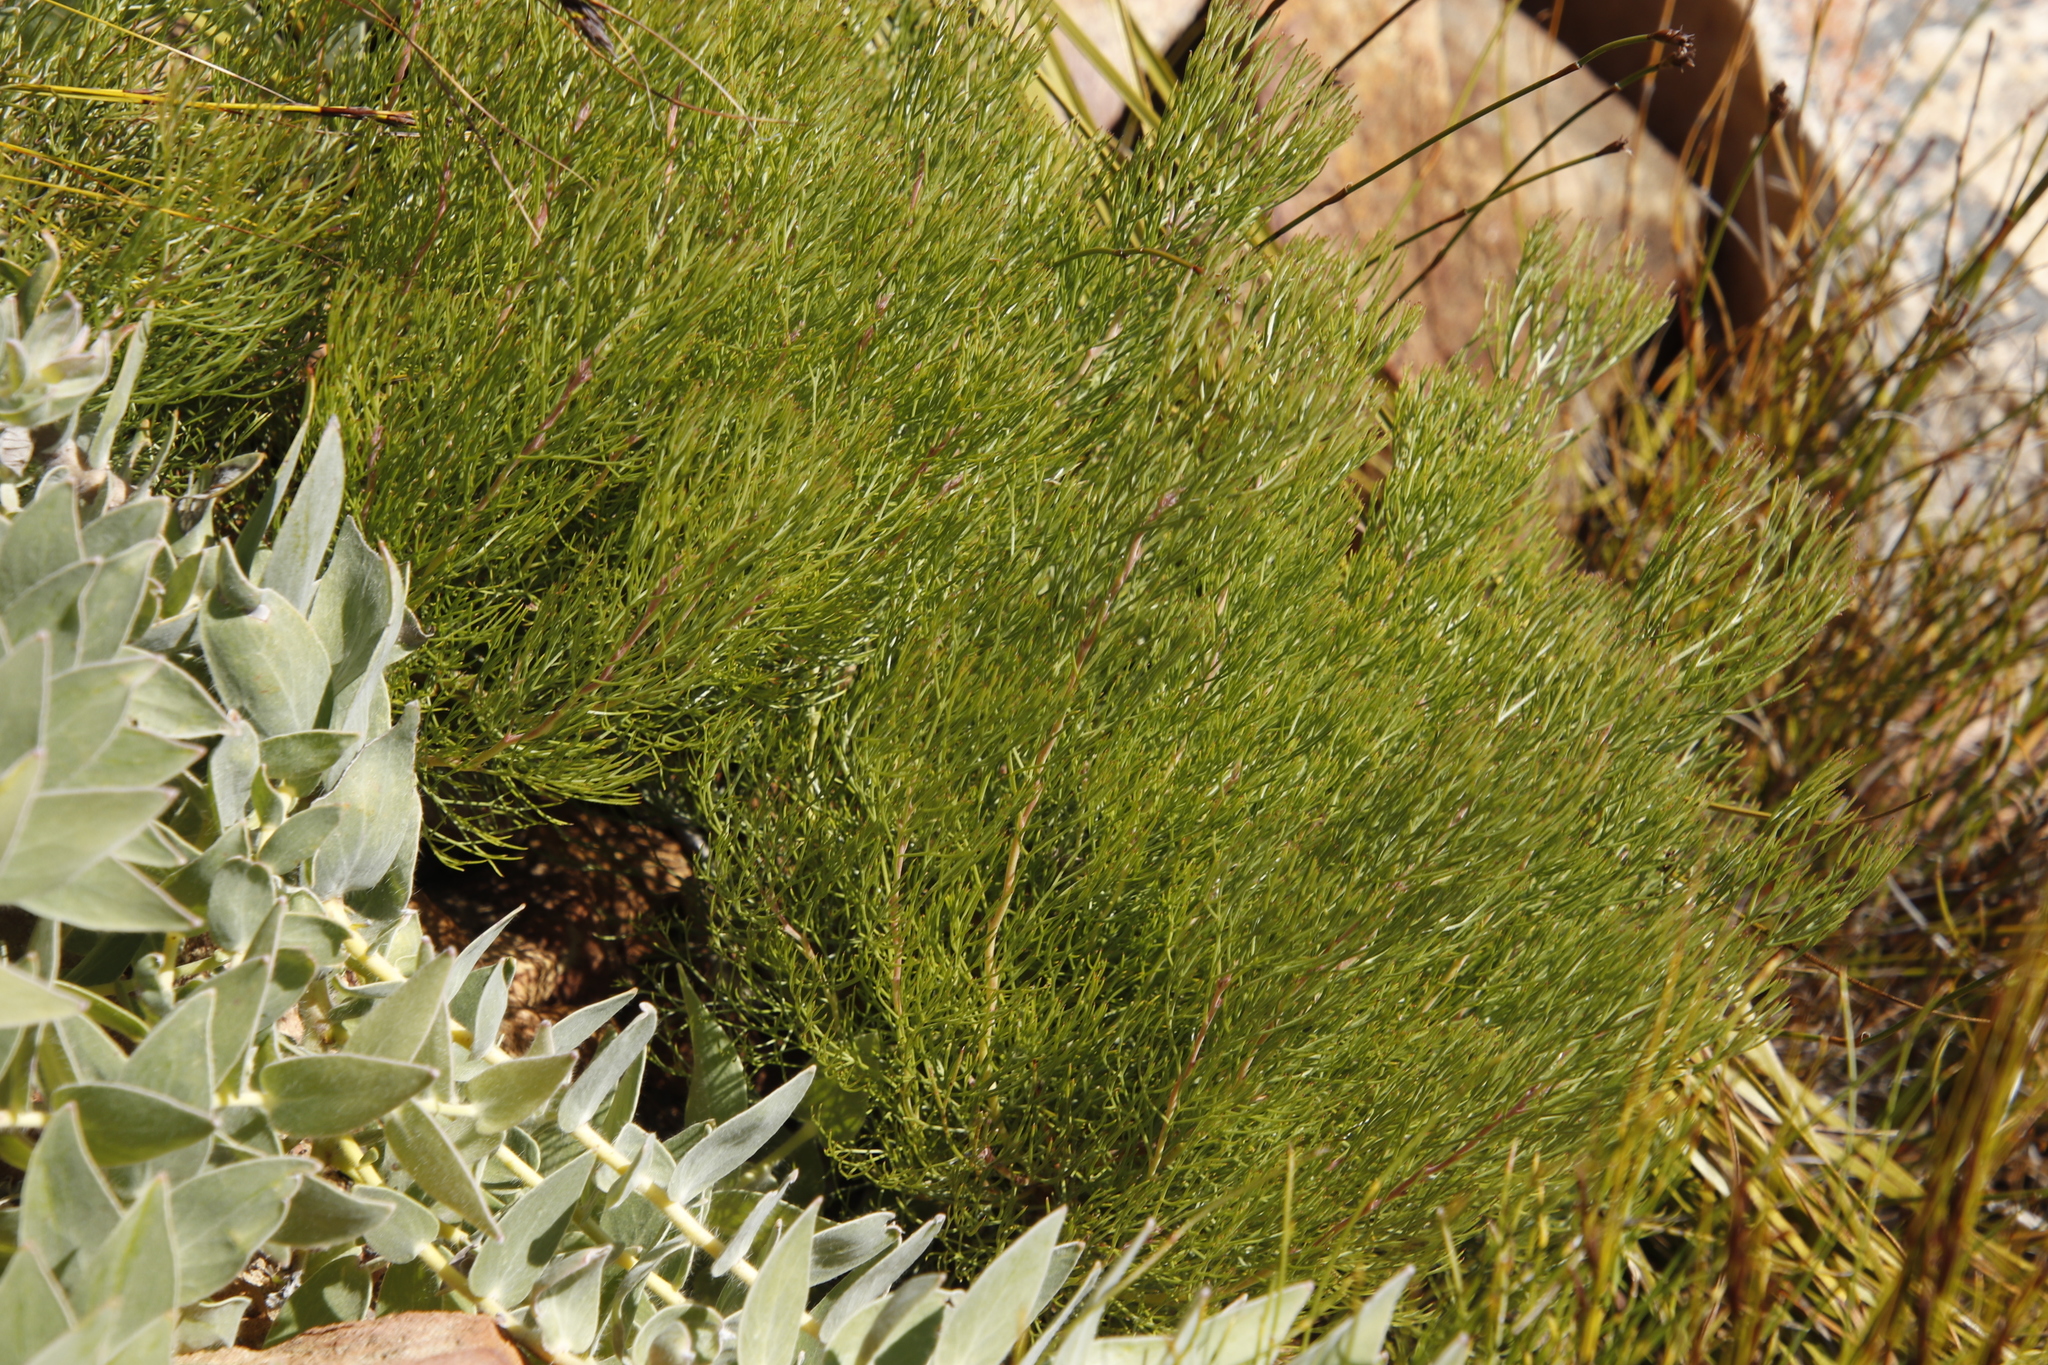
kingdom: Plantae
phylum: Tracheophyta
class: Magnoliopsida
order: Proteales
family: Proteaceae
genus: Serruria
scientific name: Serruria fasciflora
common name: Common pin spiderhead
